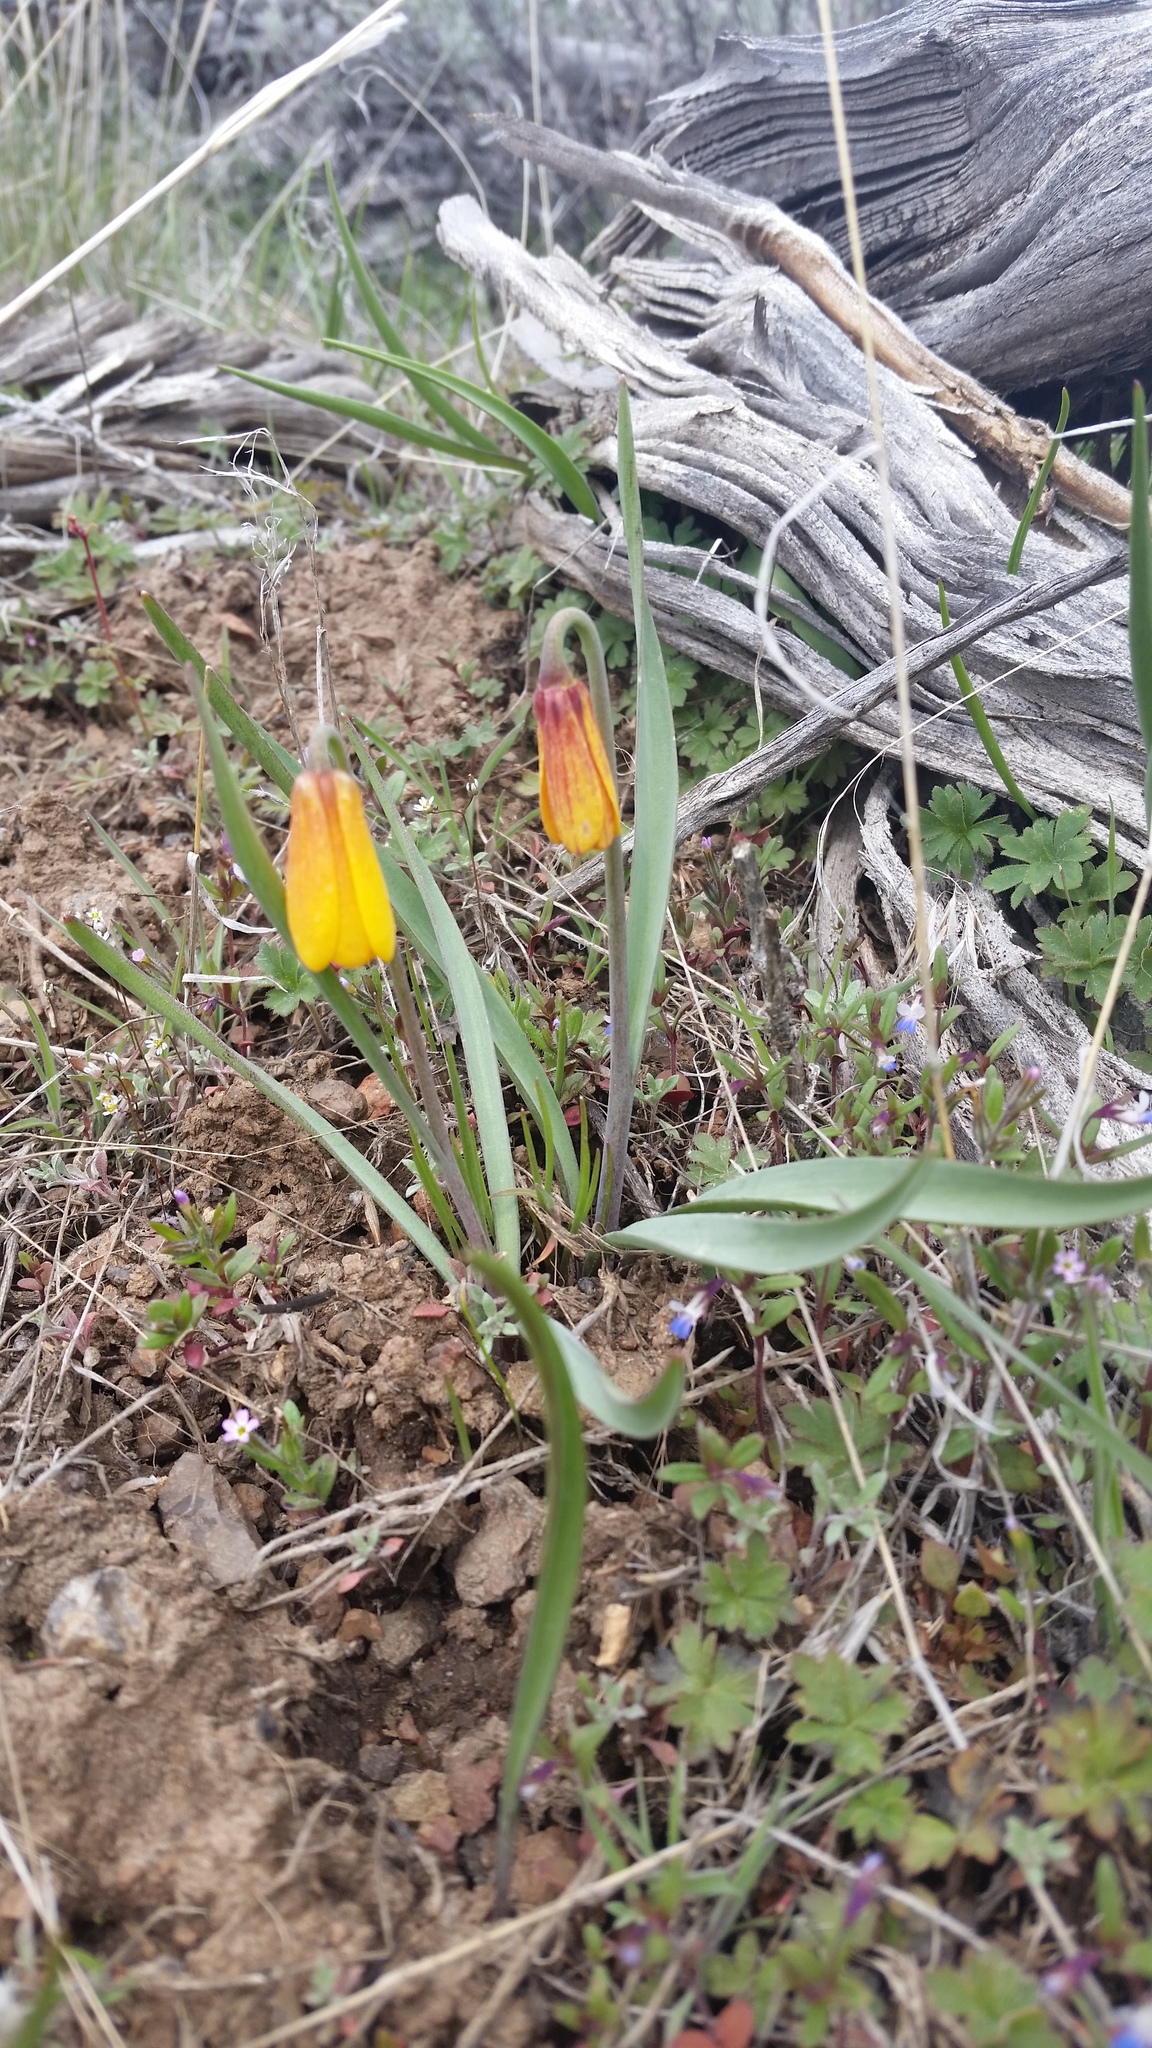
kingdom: Plantae
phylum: Tracheophyta
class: Liliopsida
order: Liliales
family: Liliaceae
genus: Fritillaria
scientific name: Fritillaria pudica
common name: Yellow fritillary
